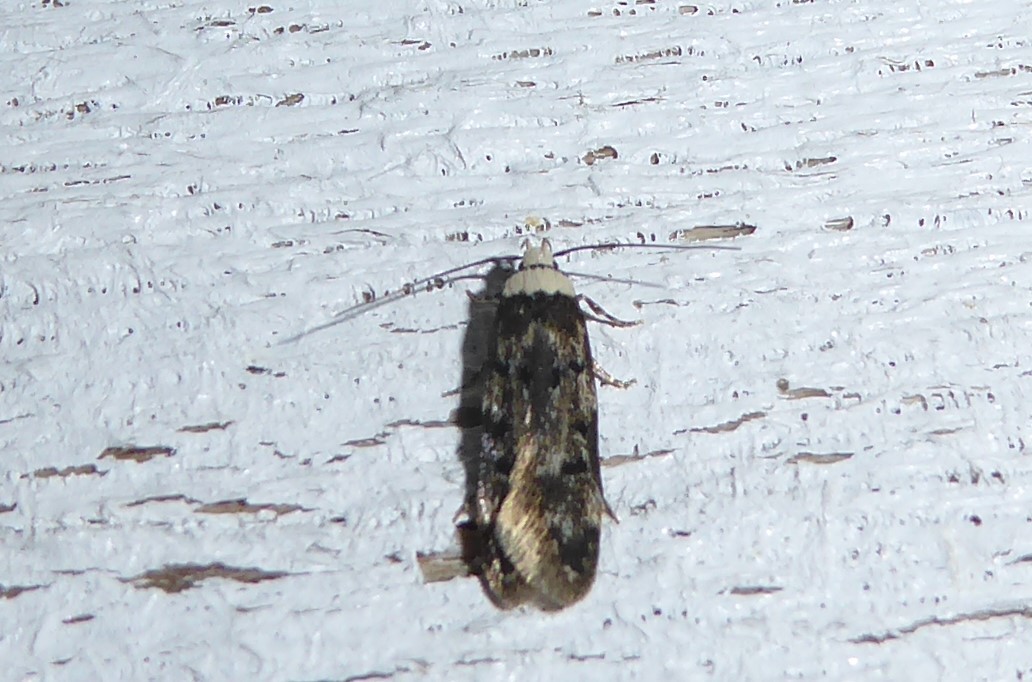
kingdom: Animalia
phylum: Arthropoda
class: Insecta
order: Lepidoptera
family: Oecophoridae
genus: Endrosis
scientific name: Endrosis sarcitrella
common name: White-shouldered house moth
